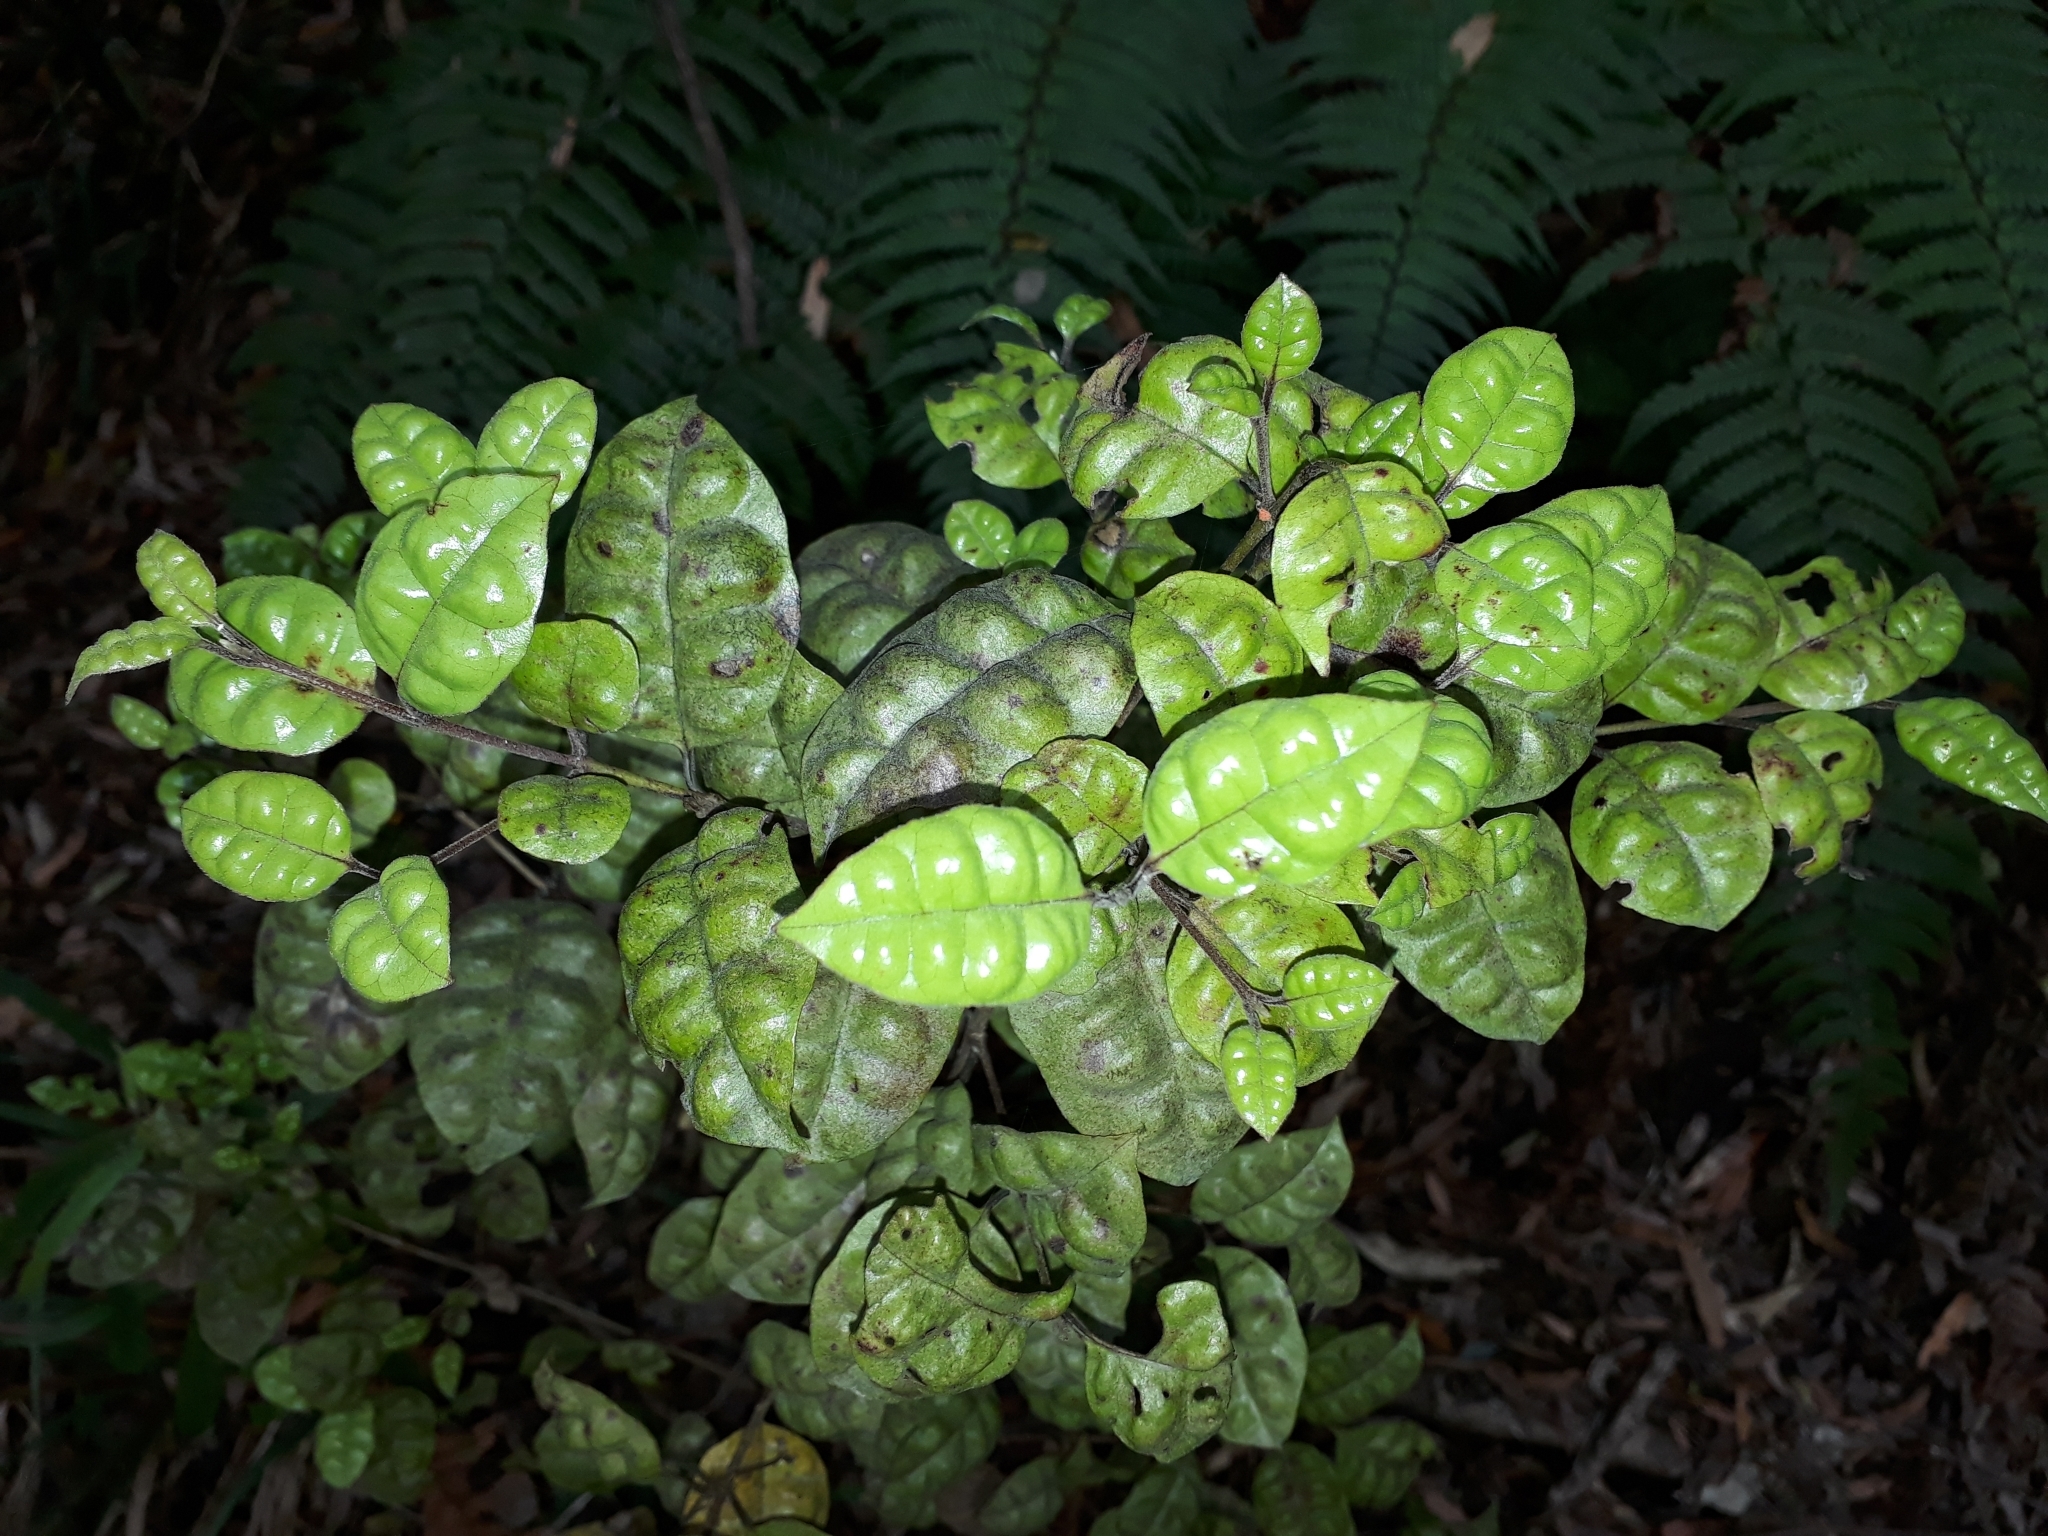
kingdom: Plantae
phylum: Tracheophyta
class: Magnoliopsida
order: Myrtales
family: Myrtaceae
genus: Lophomyrtus
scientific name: Lophomyrtus bullata
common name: Rama rama
